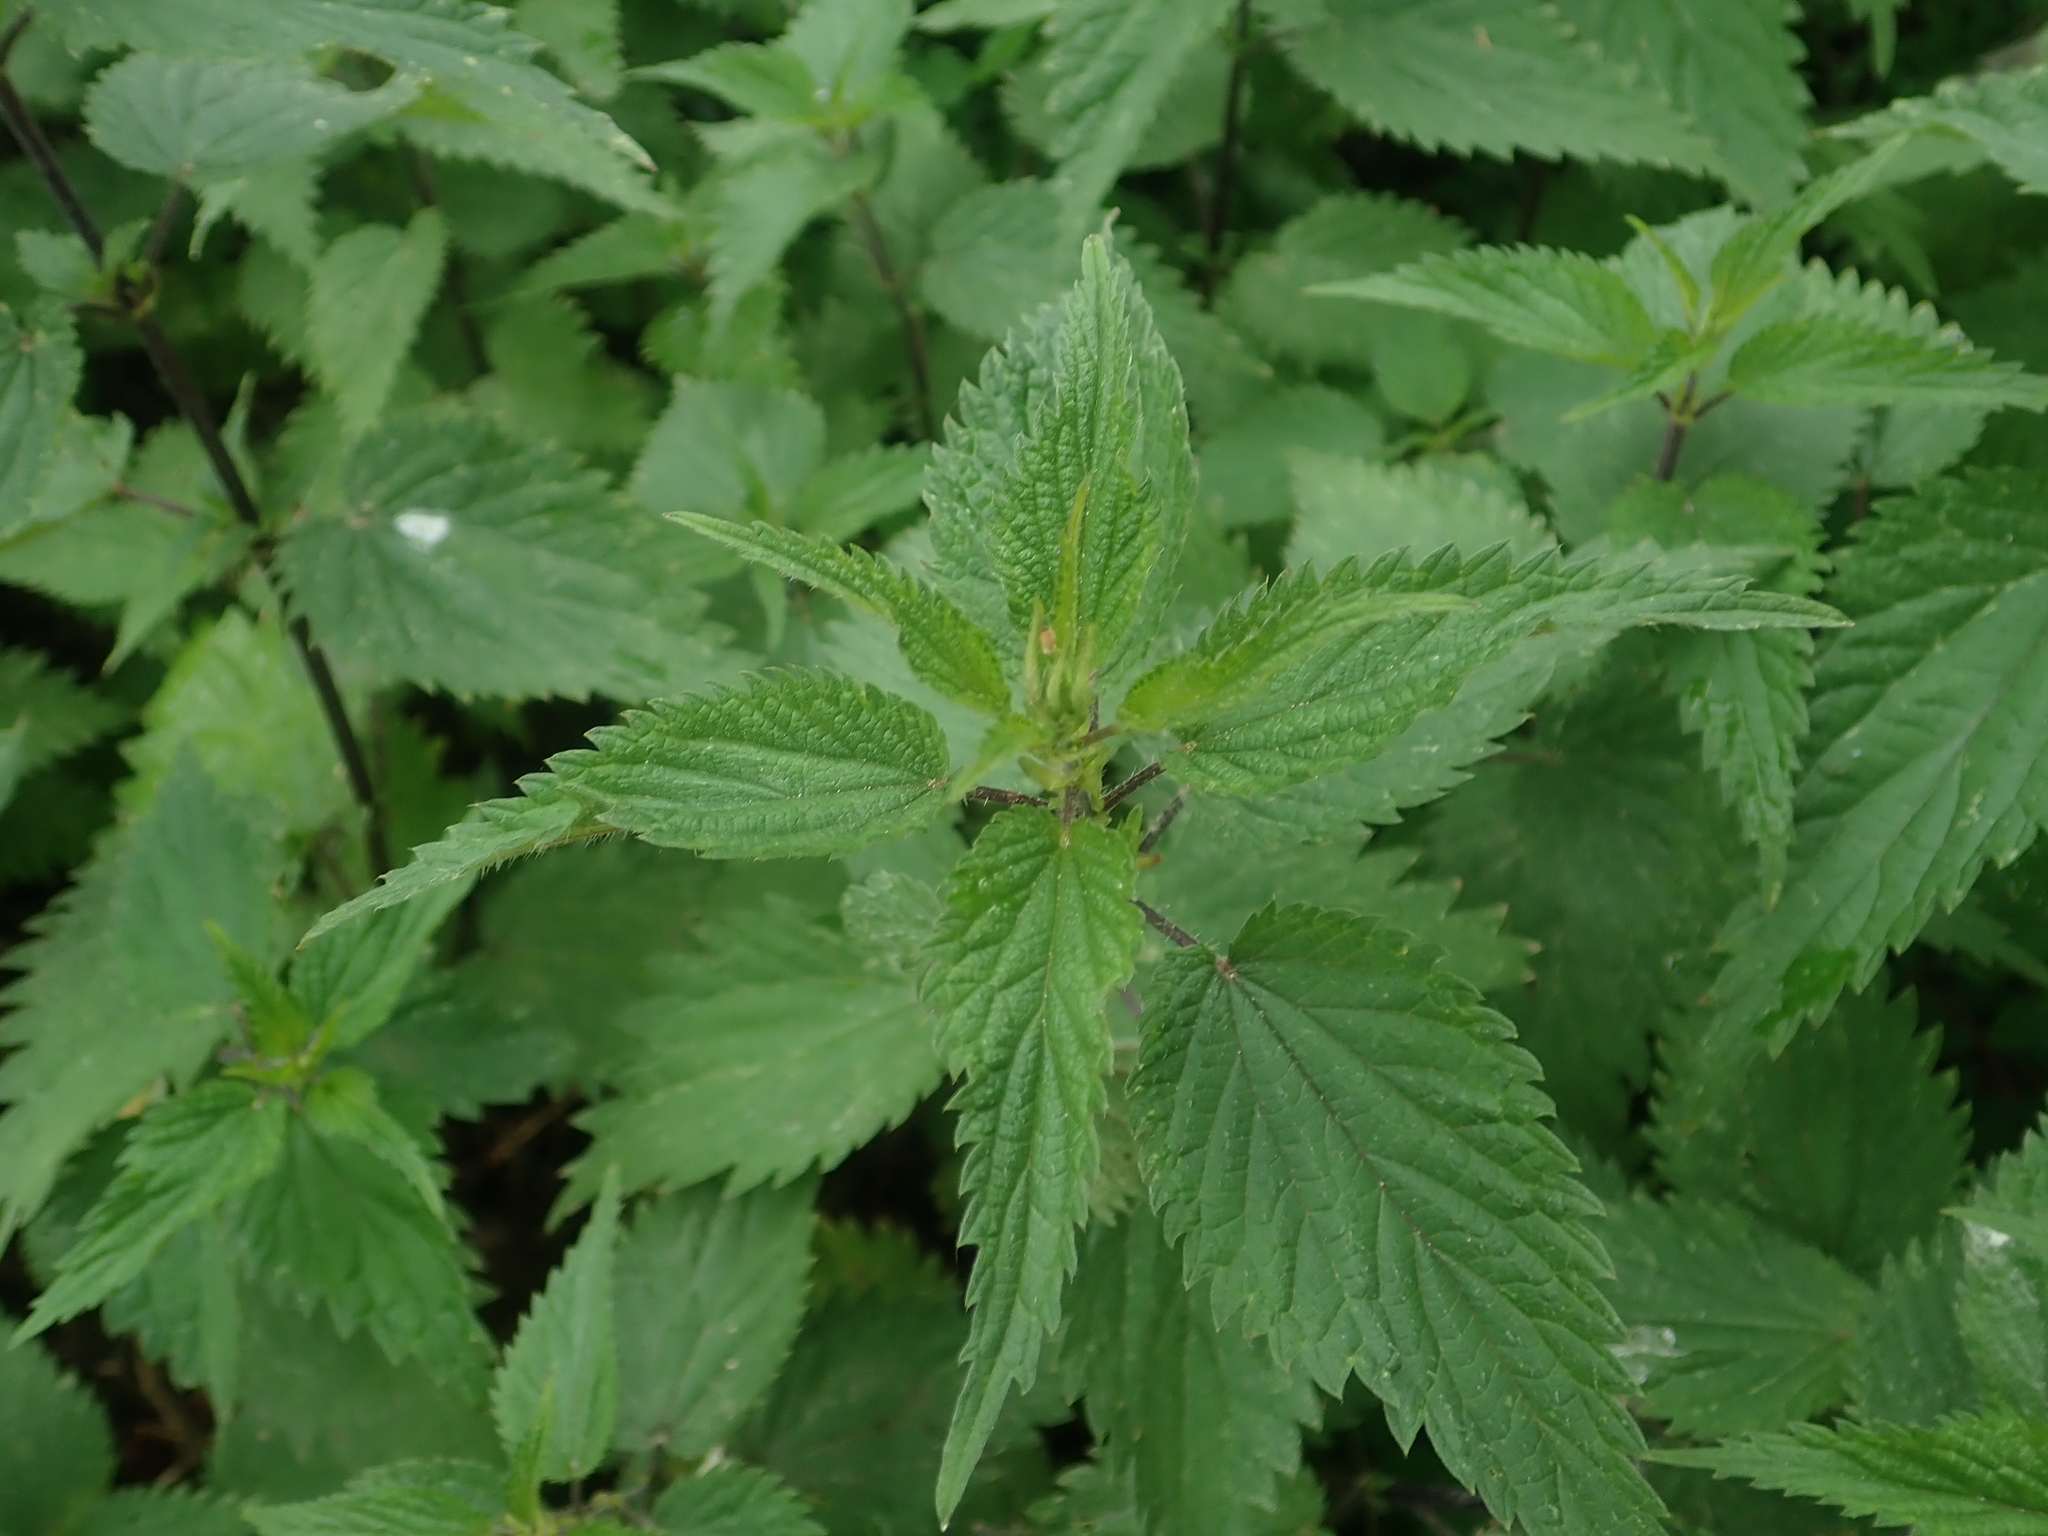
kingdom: Plantae
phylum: Tracheophyta
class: Magnoliopsida
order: Rosales
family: Urticaceae
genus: Urtica
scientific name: Urtica dioica
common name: Common nettle
